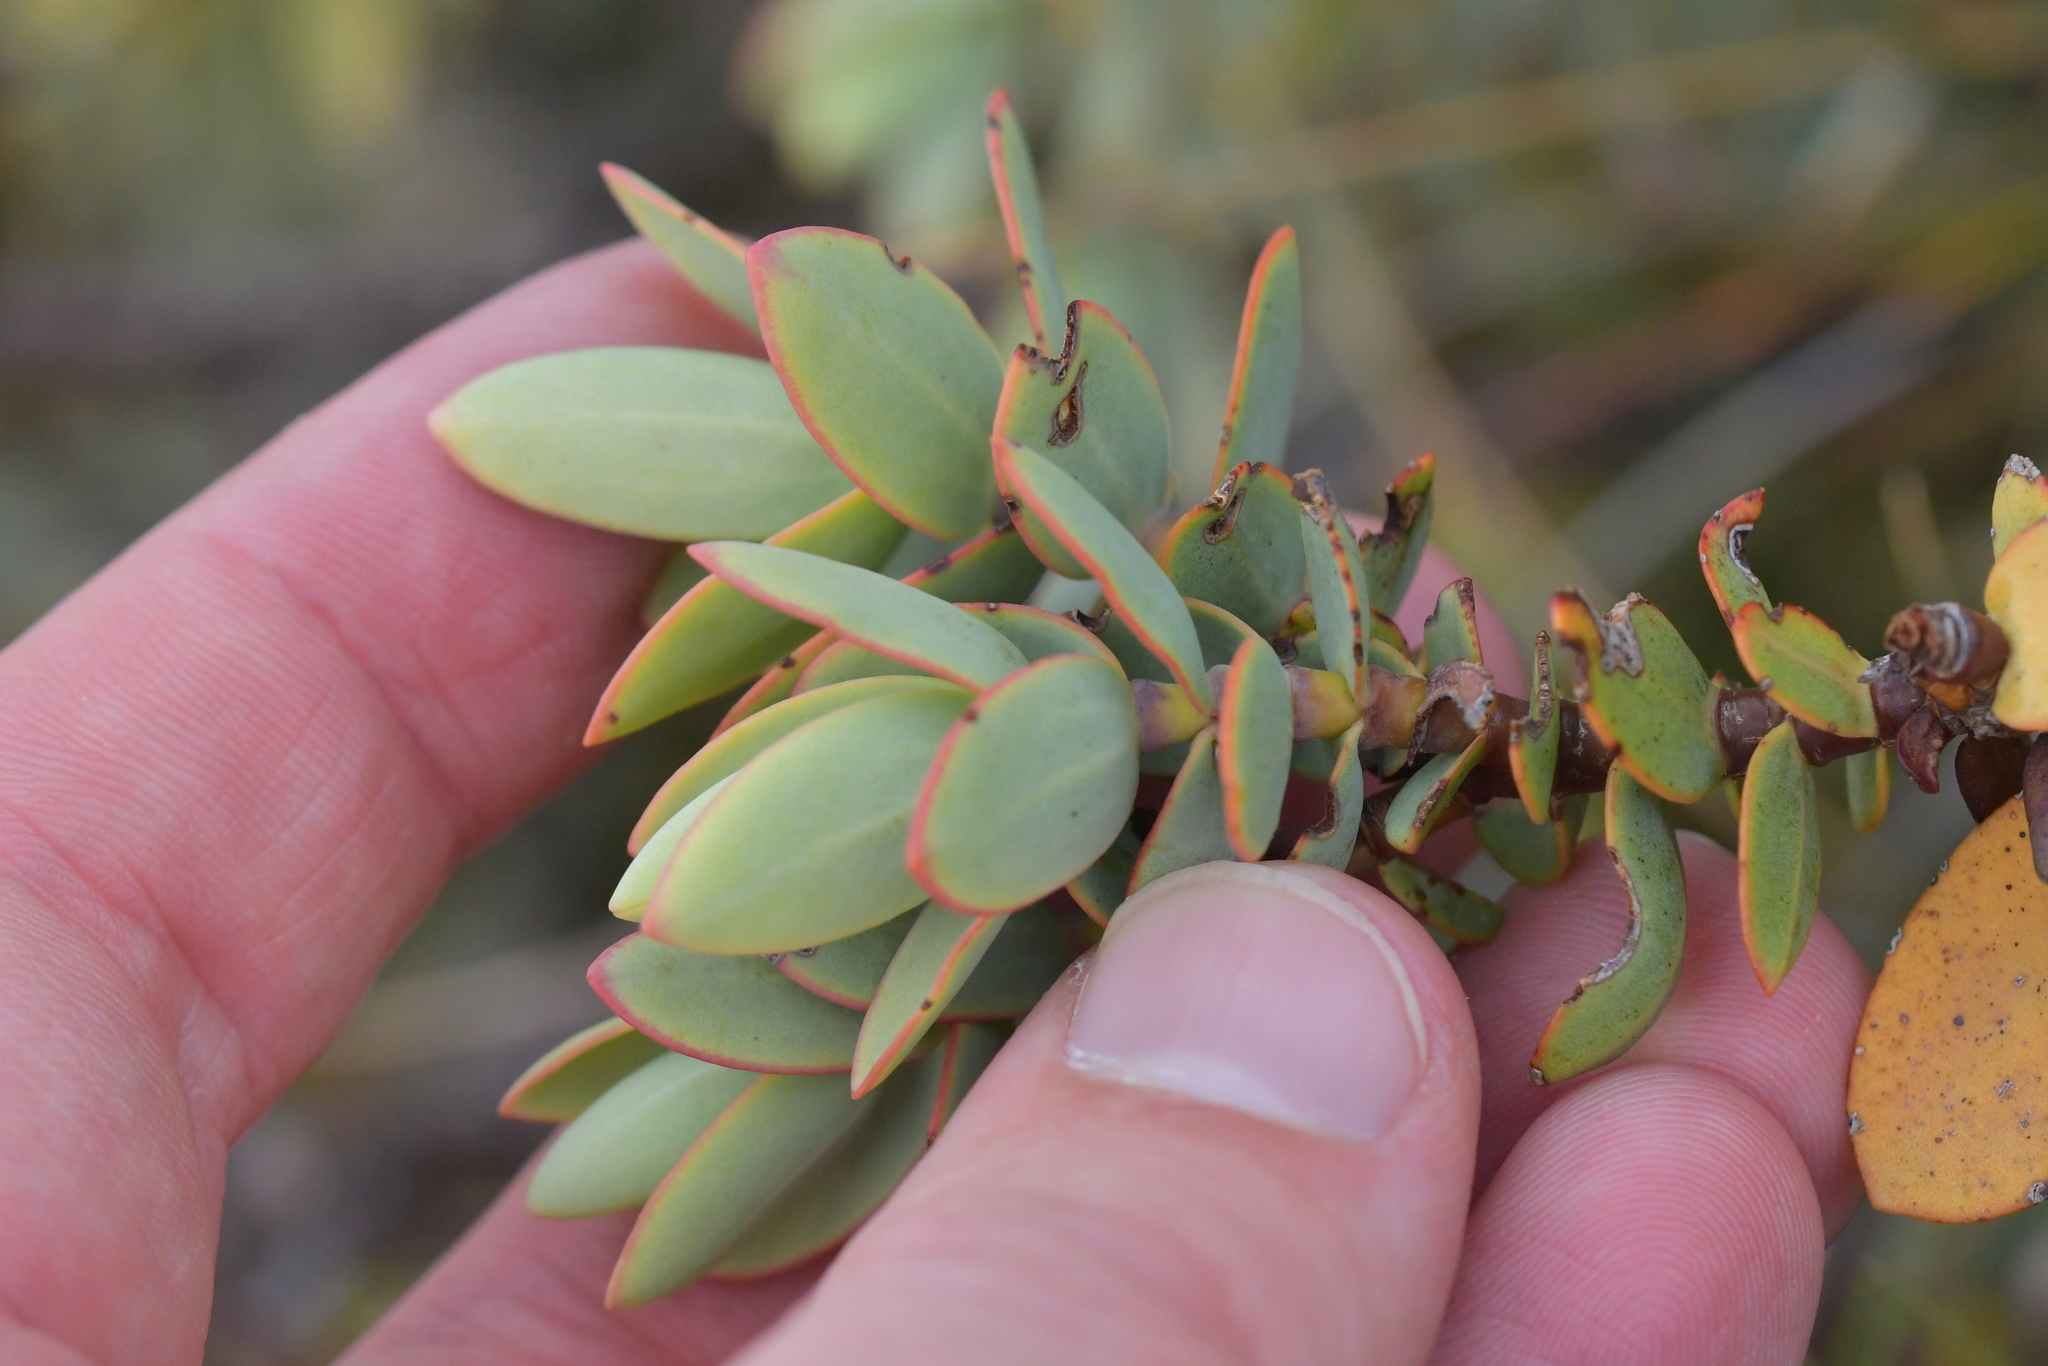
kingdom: Plantae
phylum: Tracheophyta
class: Magnoliopsida
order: Lamiales
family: Plantaginaceae
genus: Veronica
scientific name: Veronica pinguifolia
